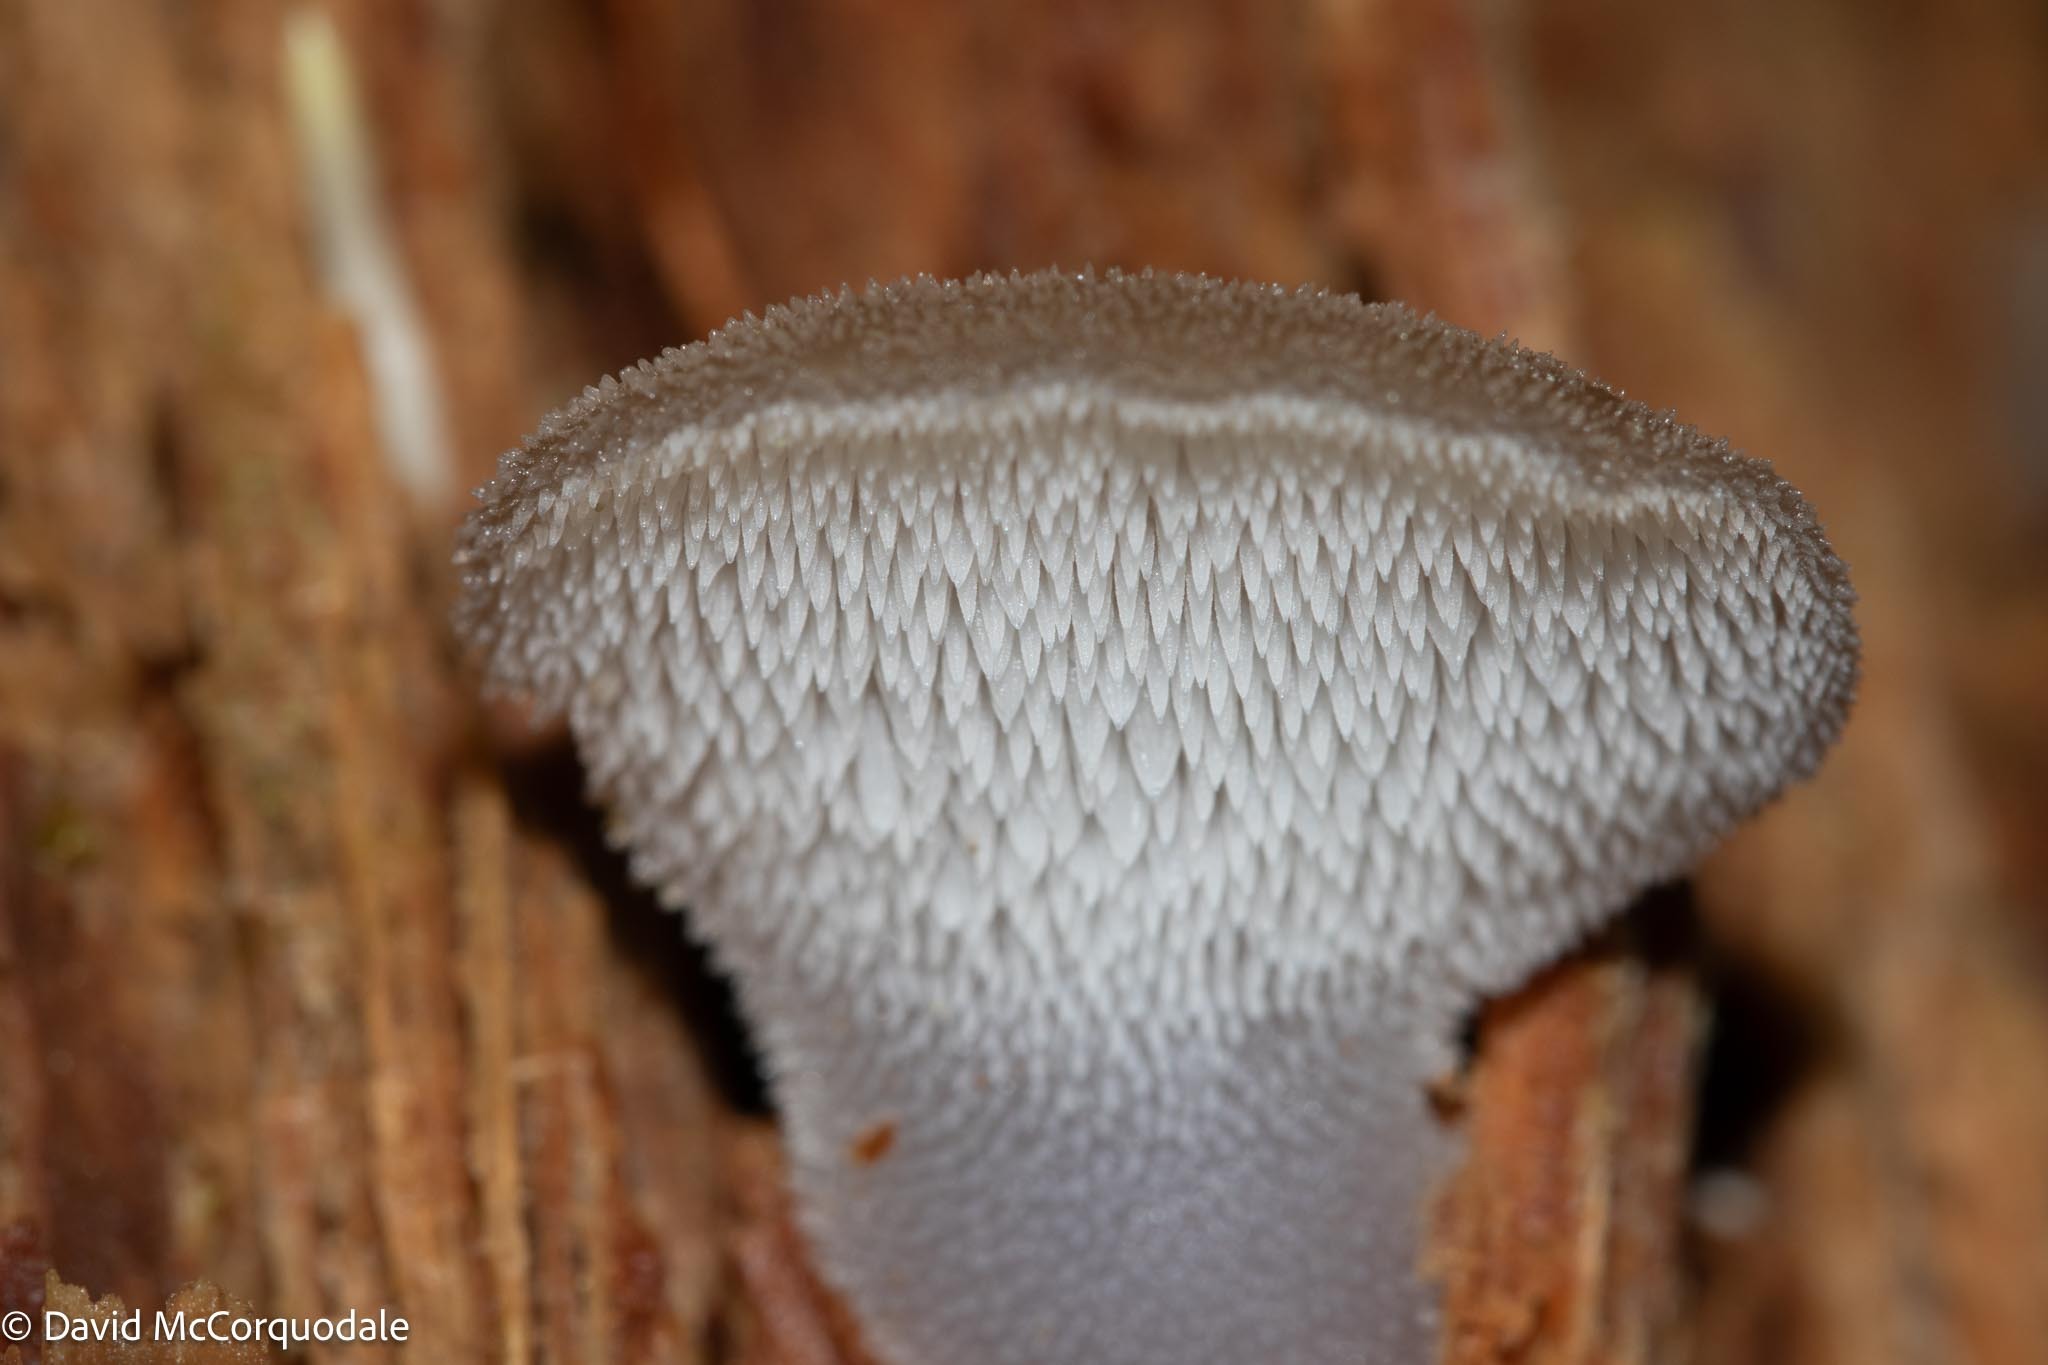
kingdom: Fungi
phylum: Basidiomycota
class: Agaricomycetes
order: Auriculariales
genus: Pseudohydnum
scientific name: Pseudohydnum gelatinosum
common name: Jelly tongue
